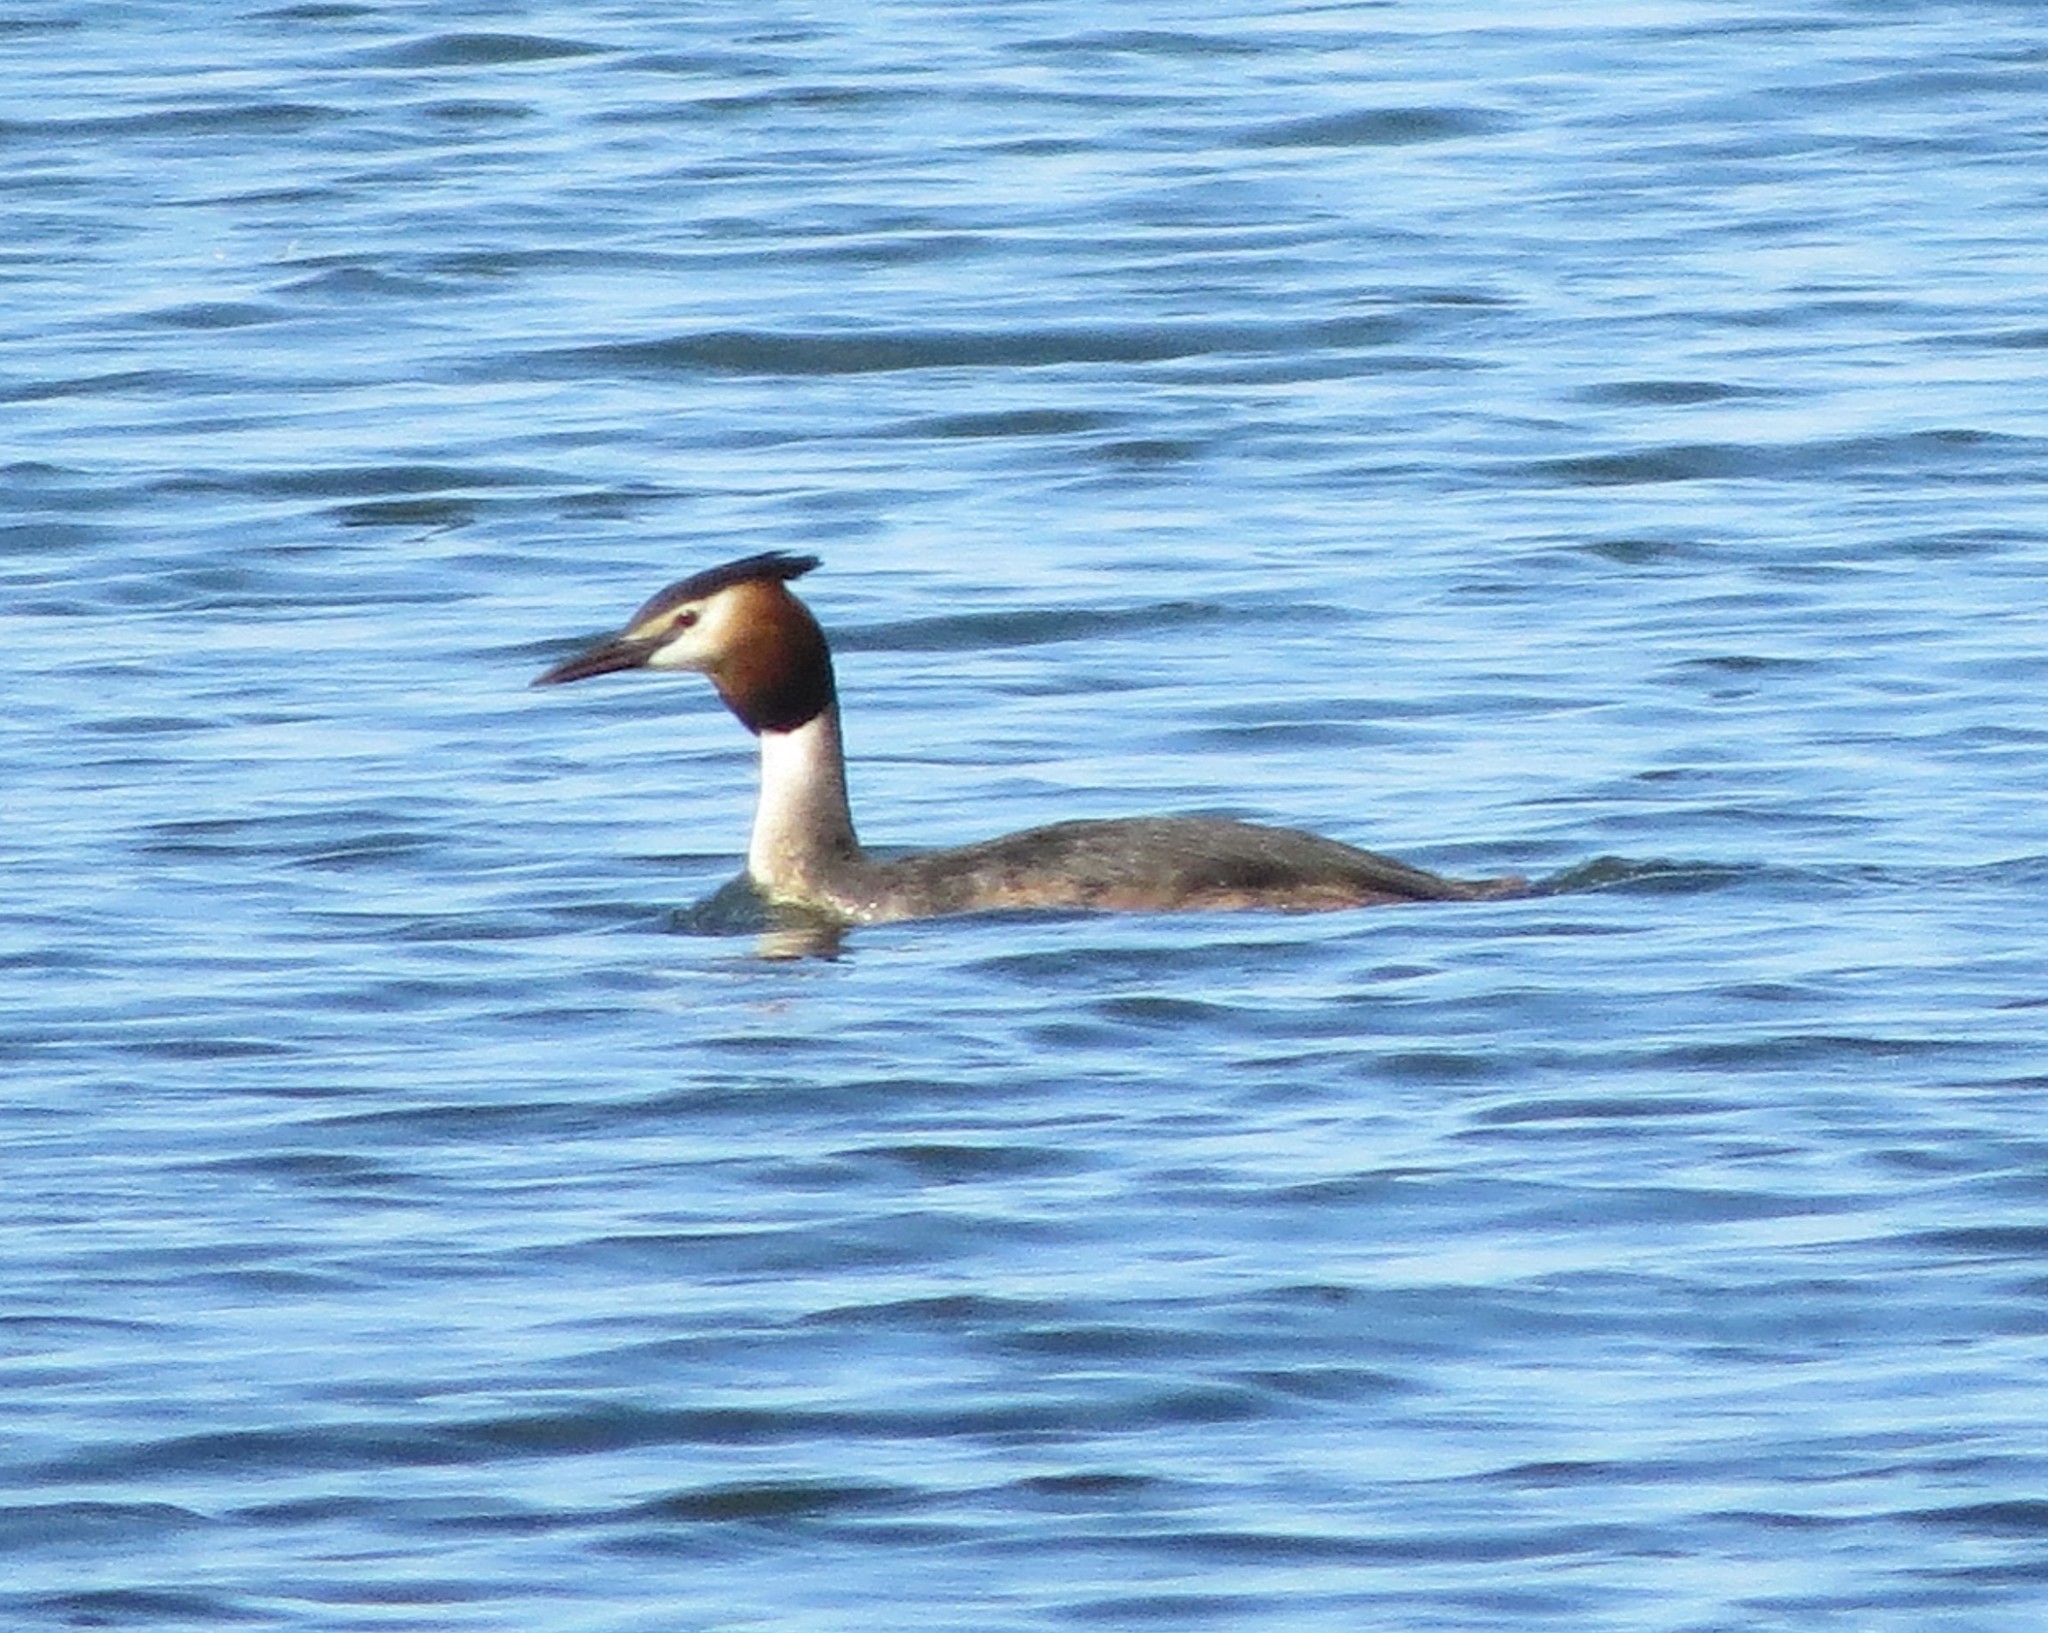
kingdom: Animalia
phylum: Chordata
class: Aves
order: Podicipediformes
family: Podicipedidae
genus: Podiceps
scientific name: Podiceps cristatus
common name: Great crested grebe
